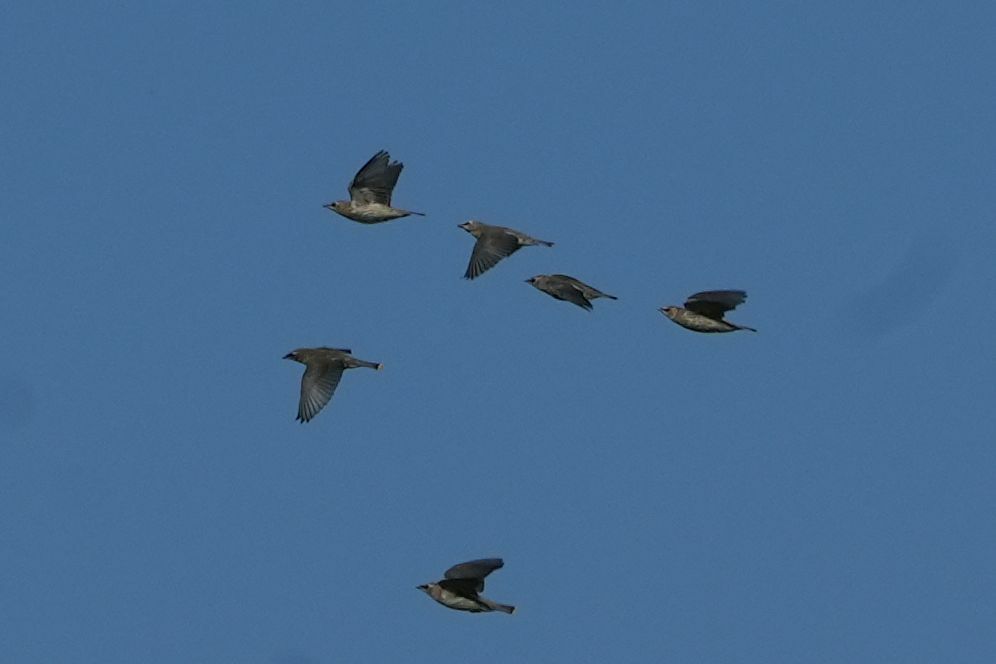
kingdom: Animalia
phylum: Chordata
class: Aves
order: Passeriformes
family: Bombycillidae
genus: Bombycilla
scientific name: Bombycilla cedrorum
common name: Cedar waxwing
